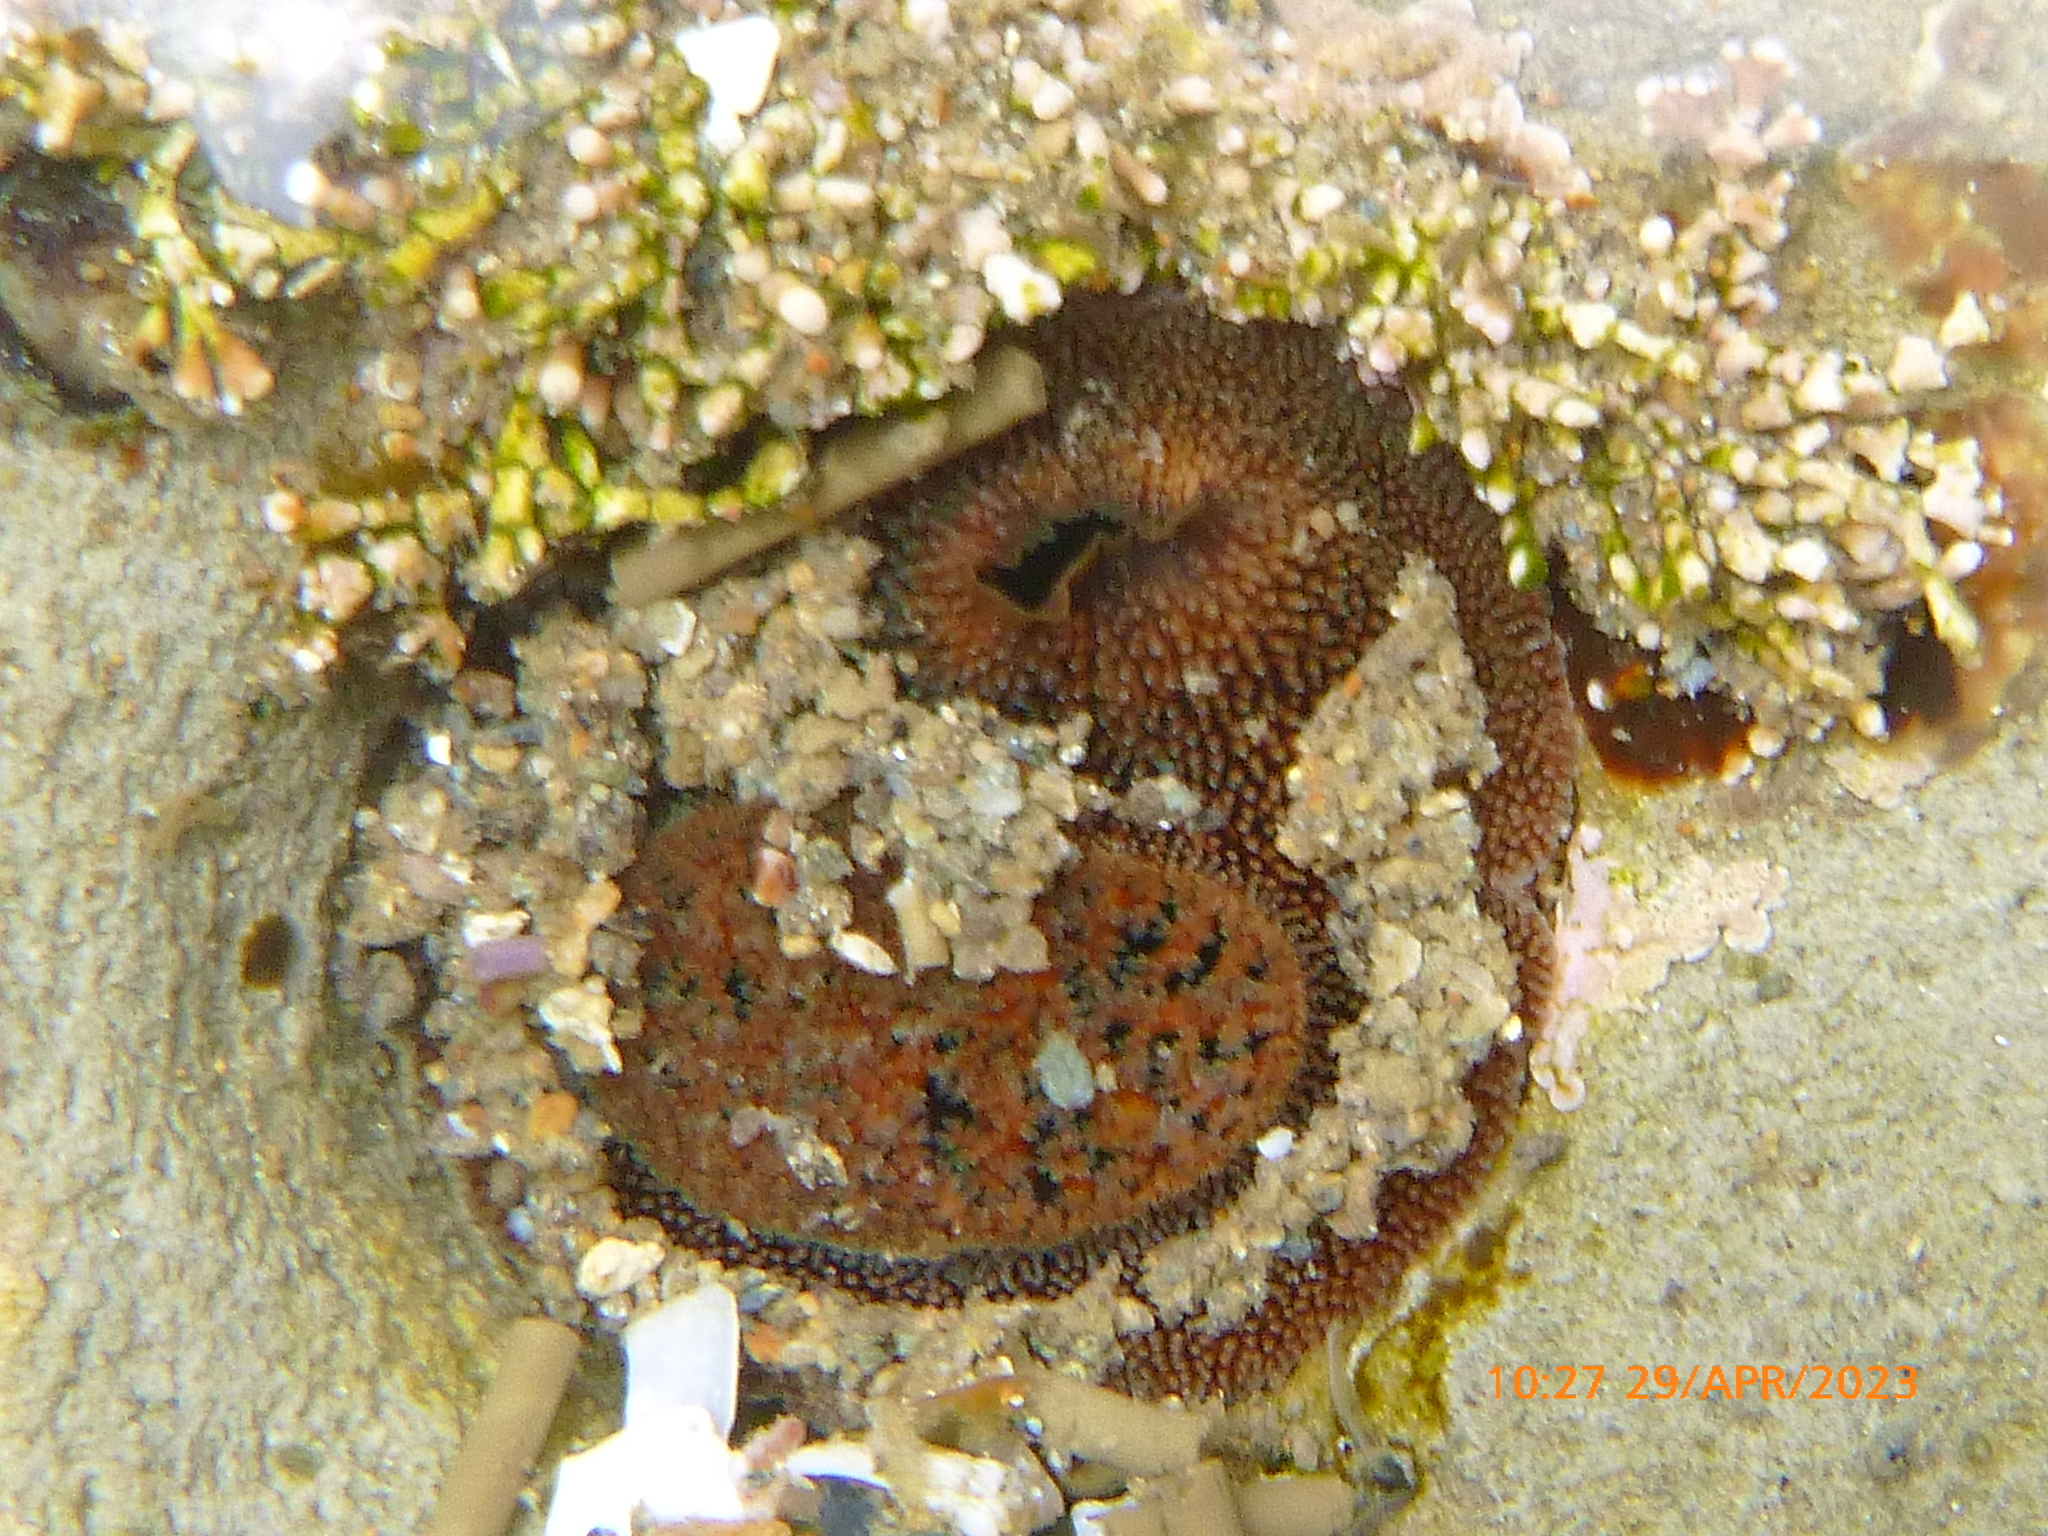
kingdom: Animalia
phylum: Mollusca
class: Bivalvia
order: Myida
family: Pholadidae
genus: Parapholas
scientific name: Parapholas californica
